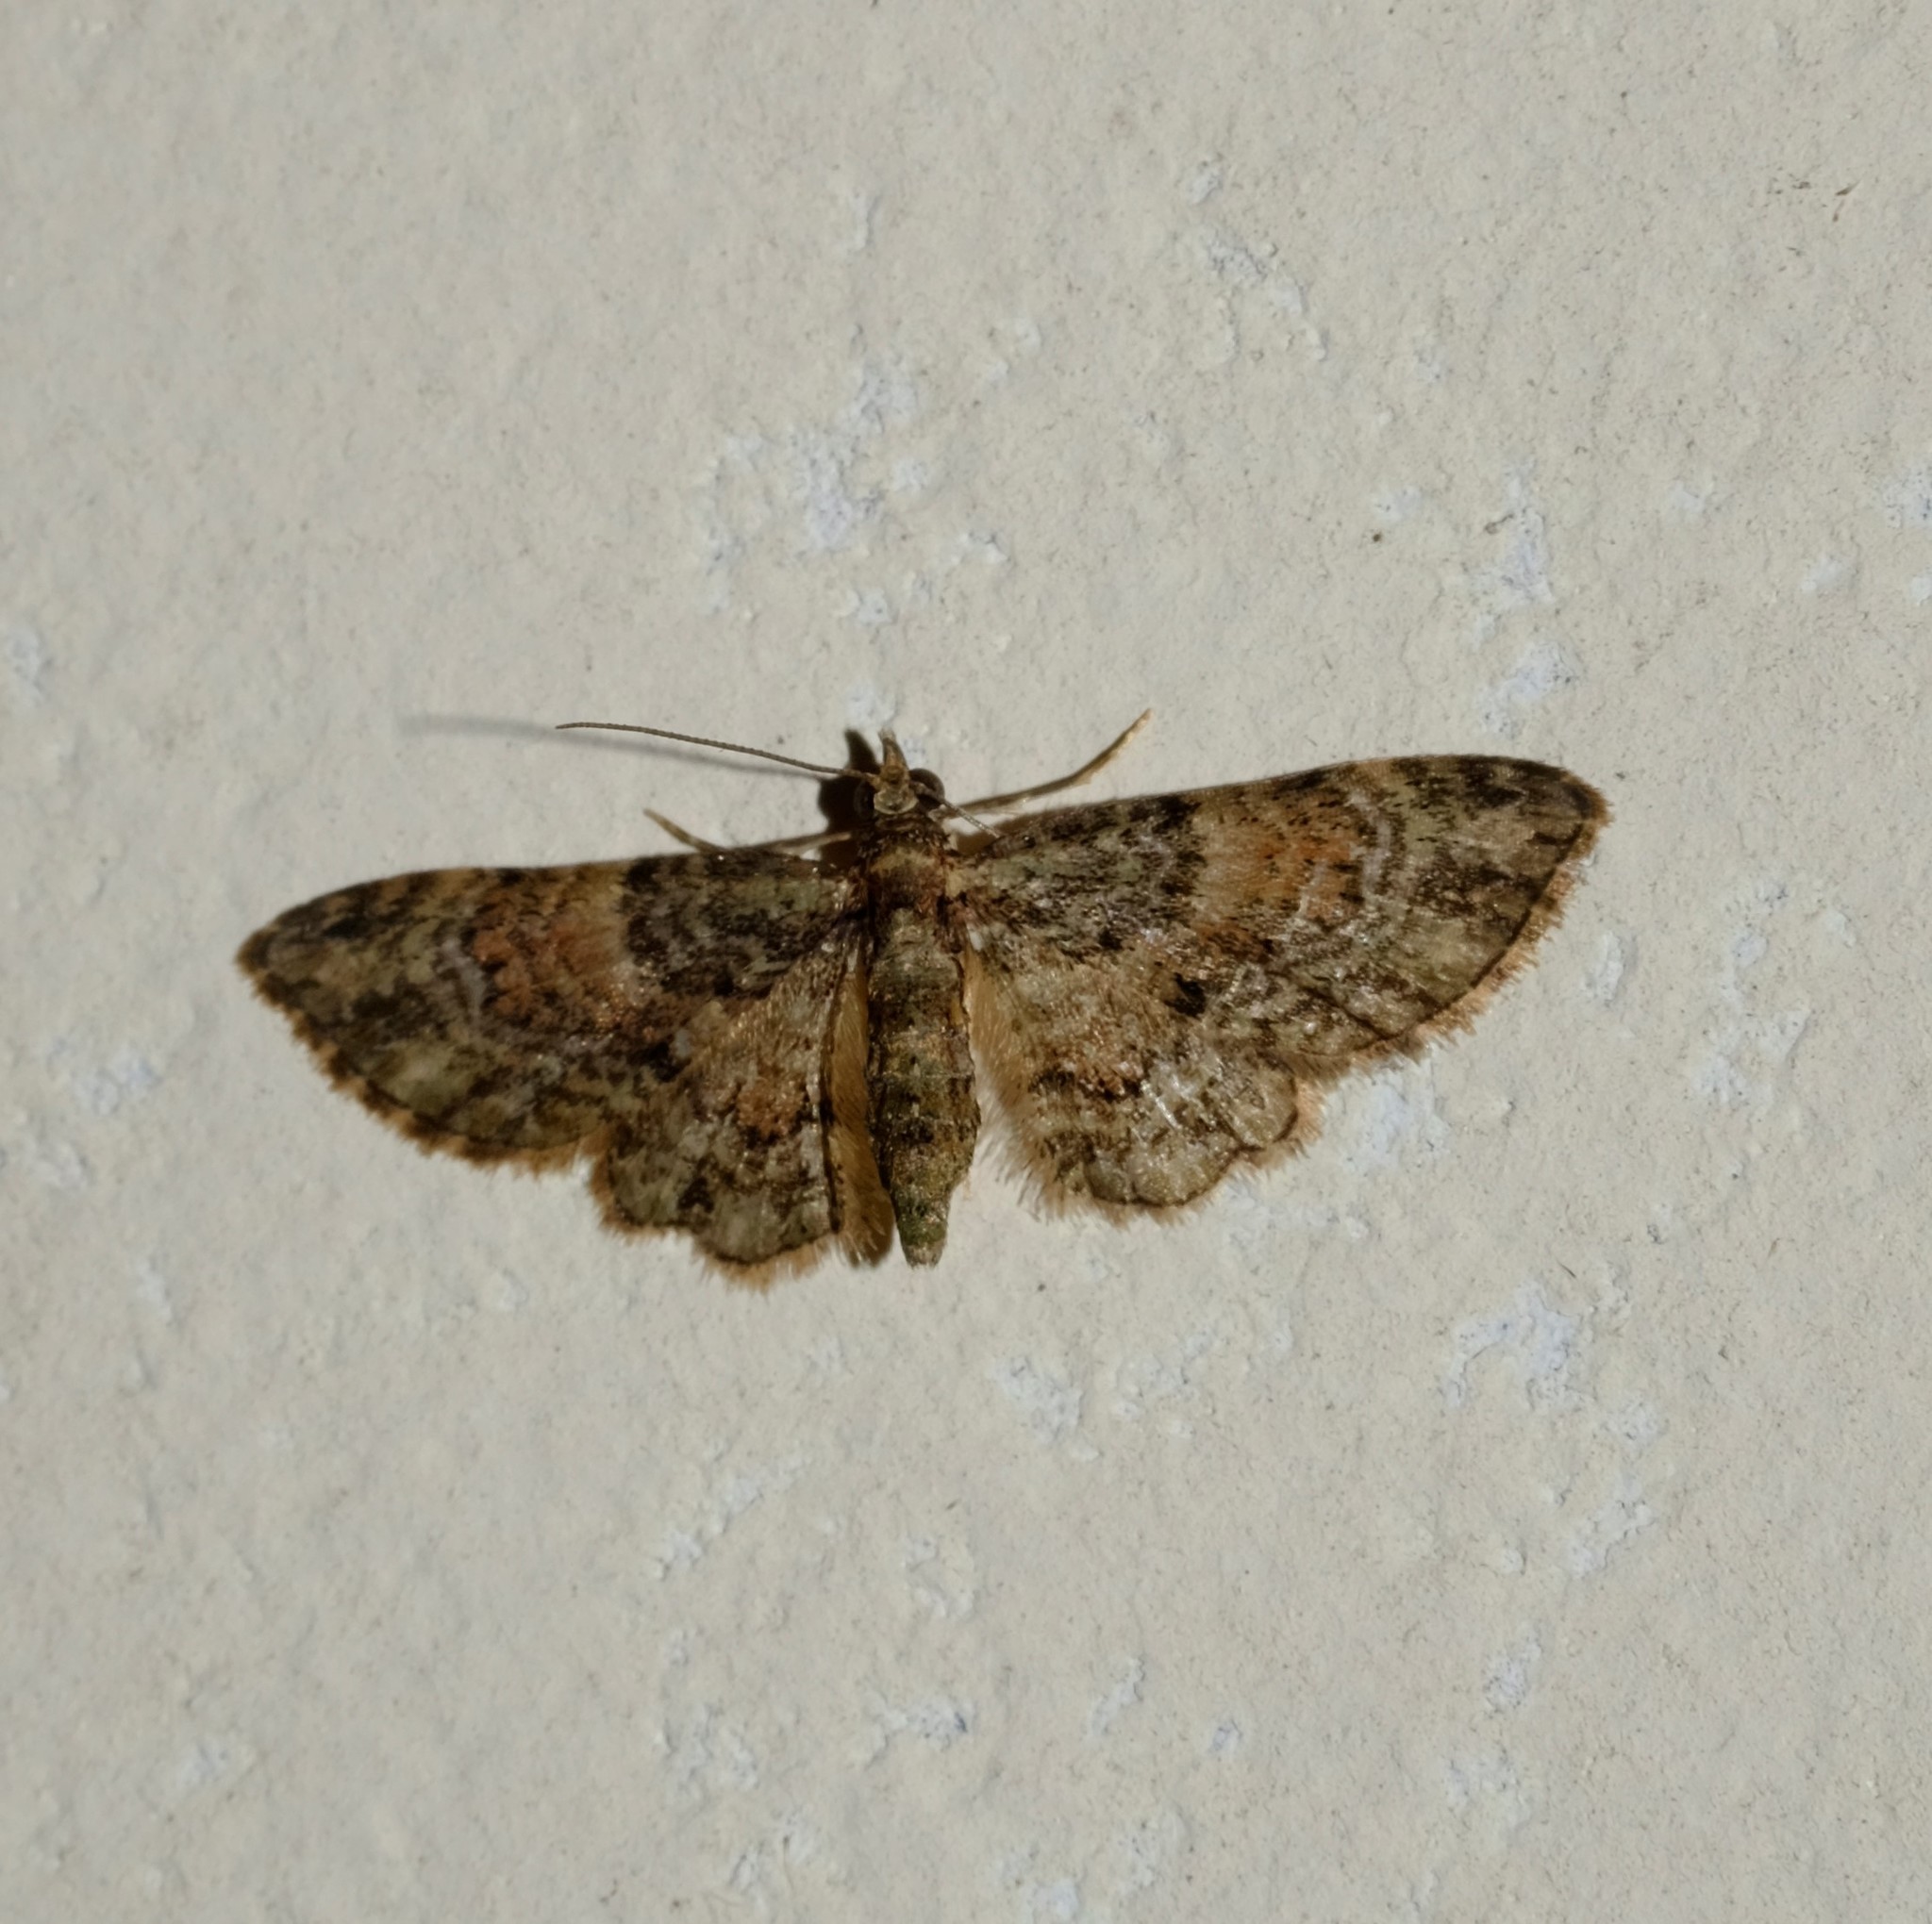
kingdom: Animalia
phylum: Arthropoda
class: Insecta
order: Lepidoptera
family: Geometridae
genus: Chloroclystis
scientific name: Chloroclystis catastreptes
